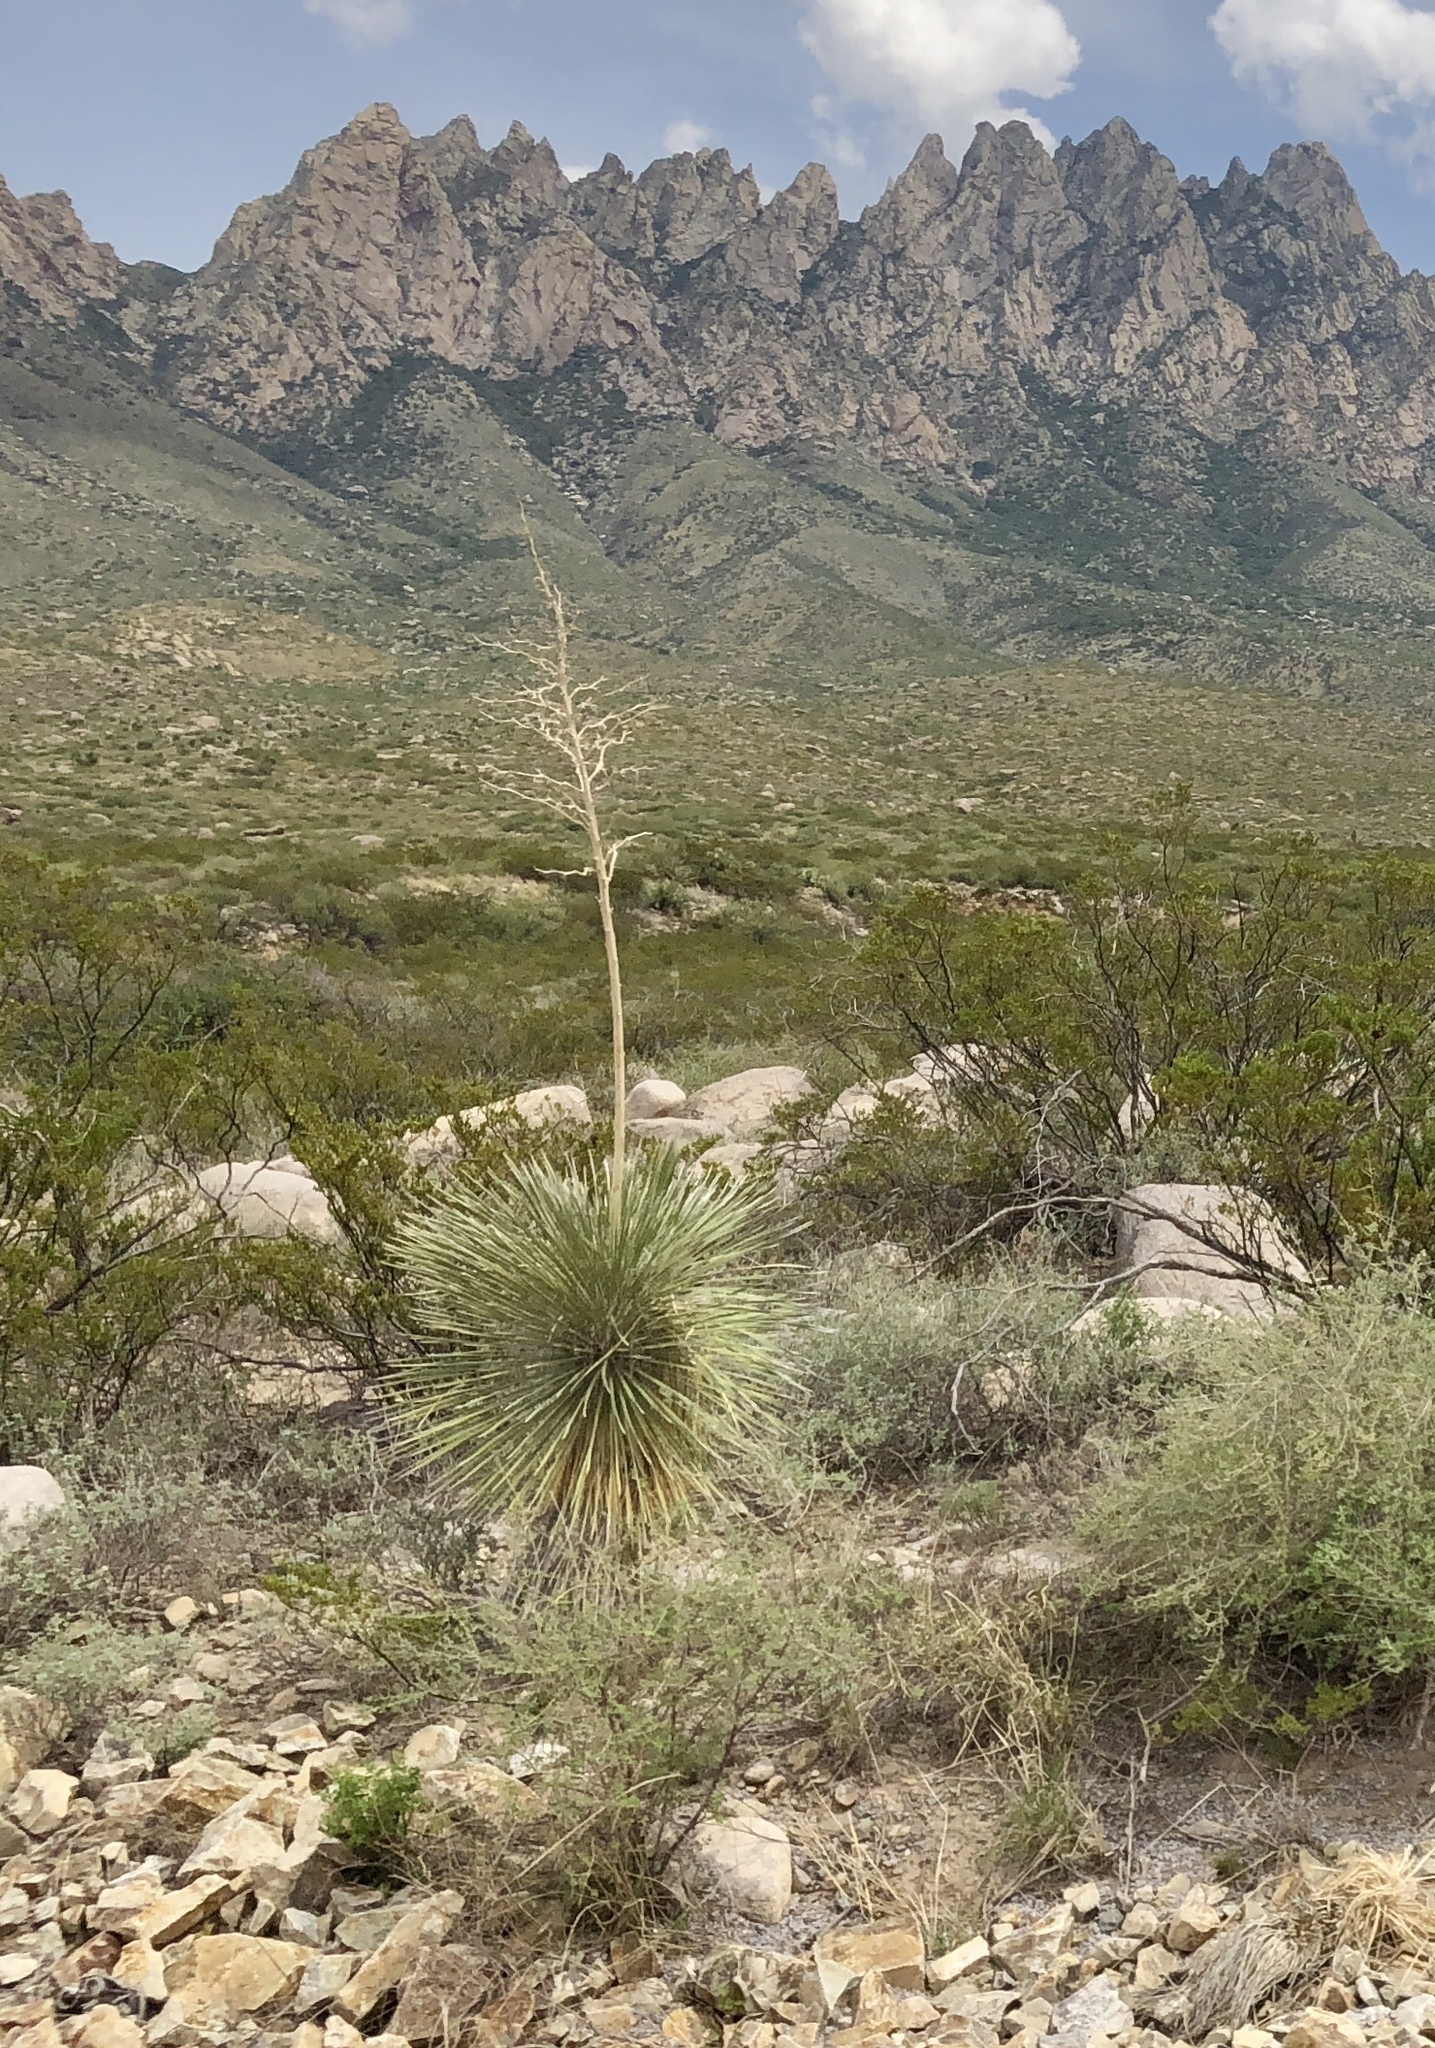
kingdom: Plantae
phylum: Tracheophyta
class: Liliopsida
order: Asparagales
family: Asparagaceae
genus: Yucca
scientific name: Yucca elata
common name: Palmella
